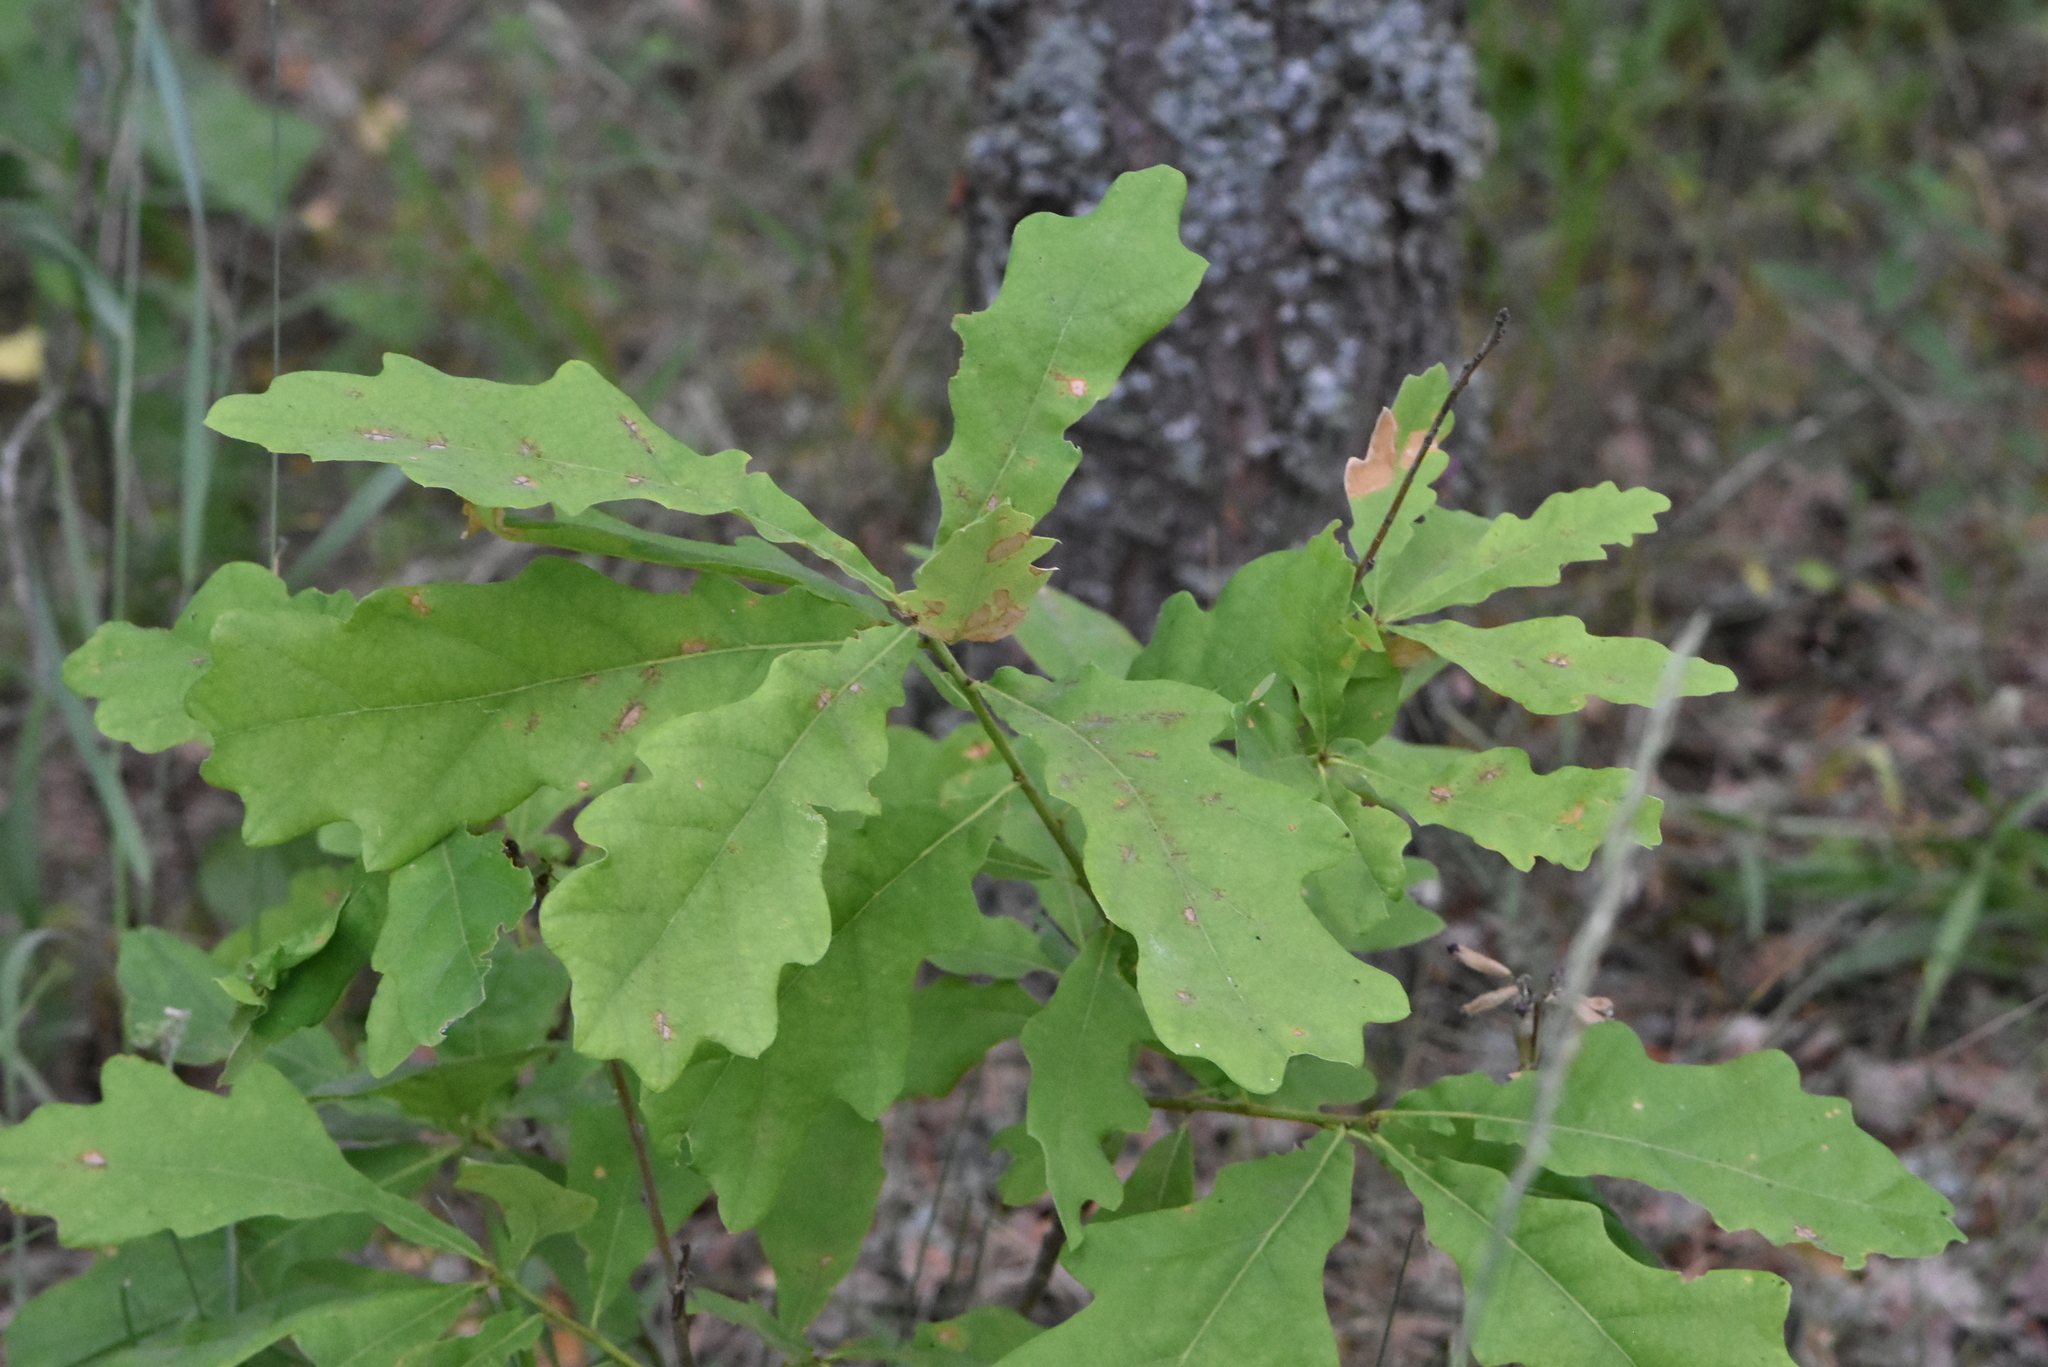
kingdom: Plantae
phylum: Tracheophyta
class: Magnoliopsida
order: Fagales
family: Fagaceae
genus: Quercus
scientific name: Quercus robur
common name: Pedunculate oak
